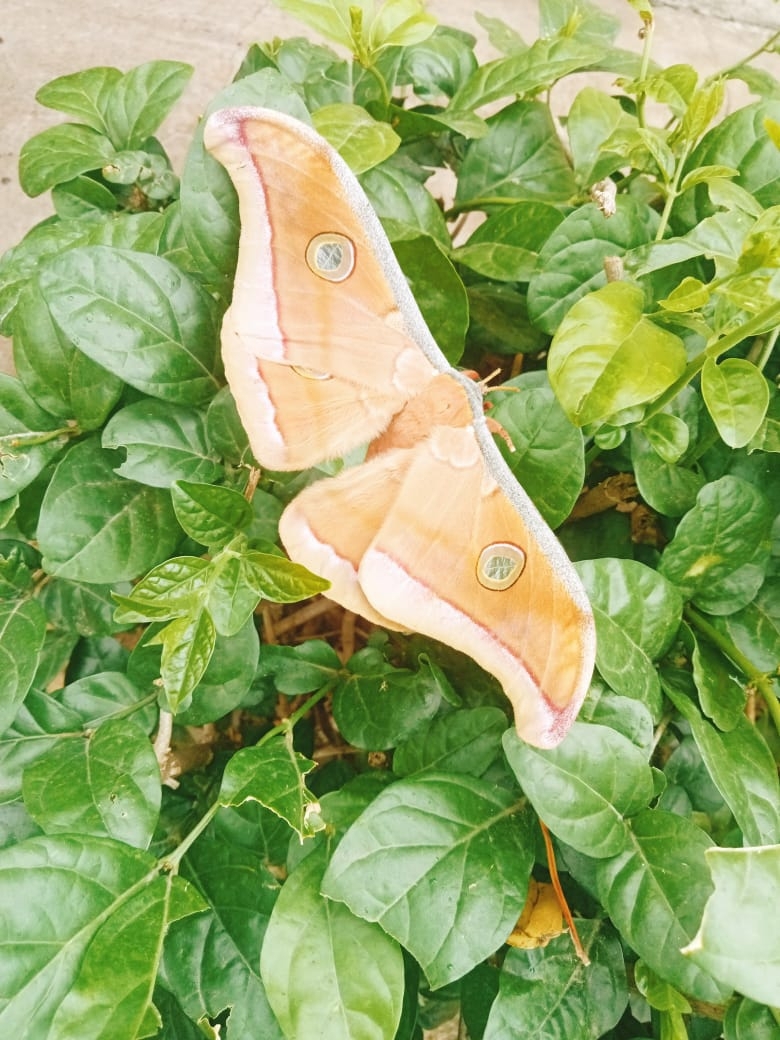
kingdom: Animalia
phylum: Arthropoda
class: Insecta
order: Lepidoptera
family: Saturniidae
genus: Antheraea
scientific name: Antheraea paphia
